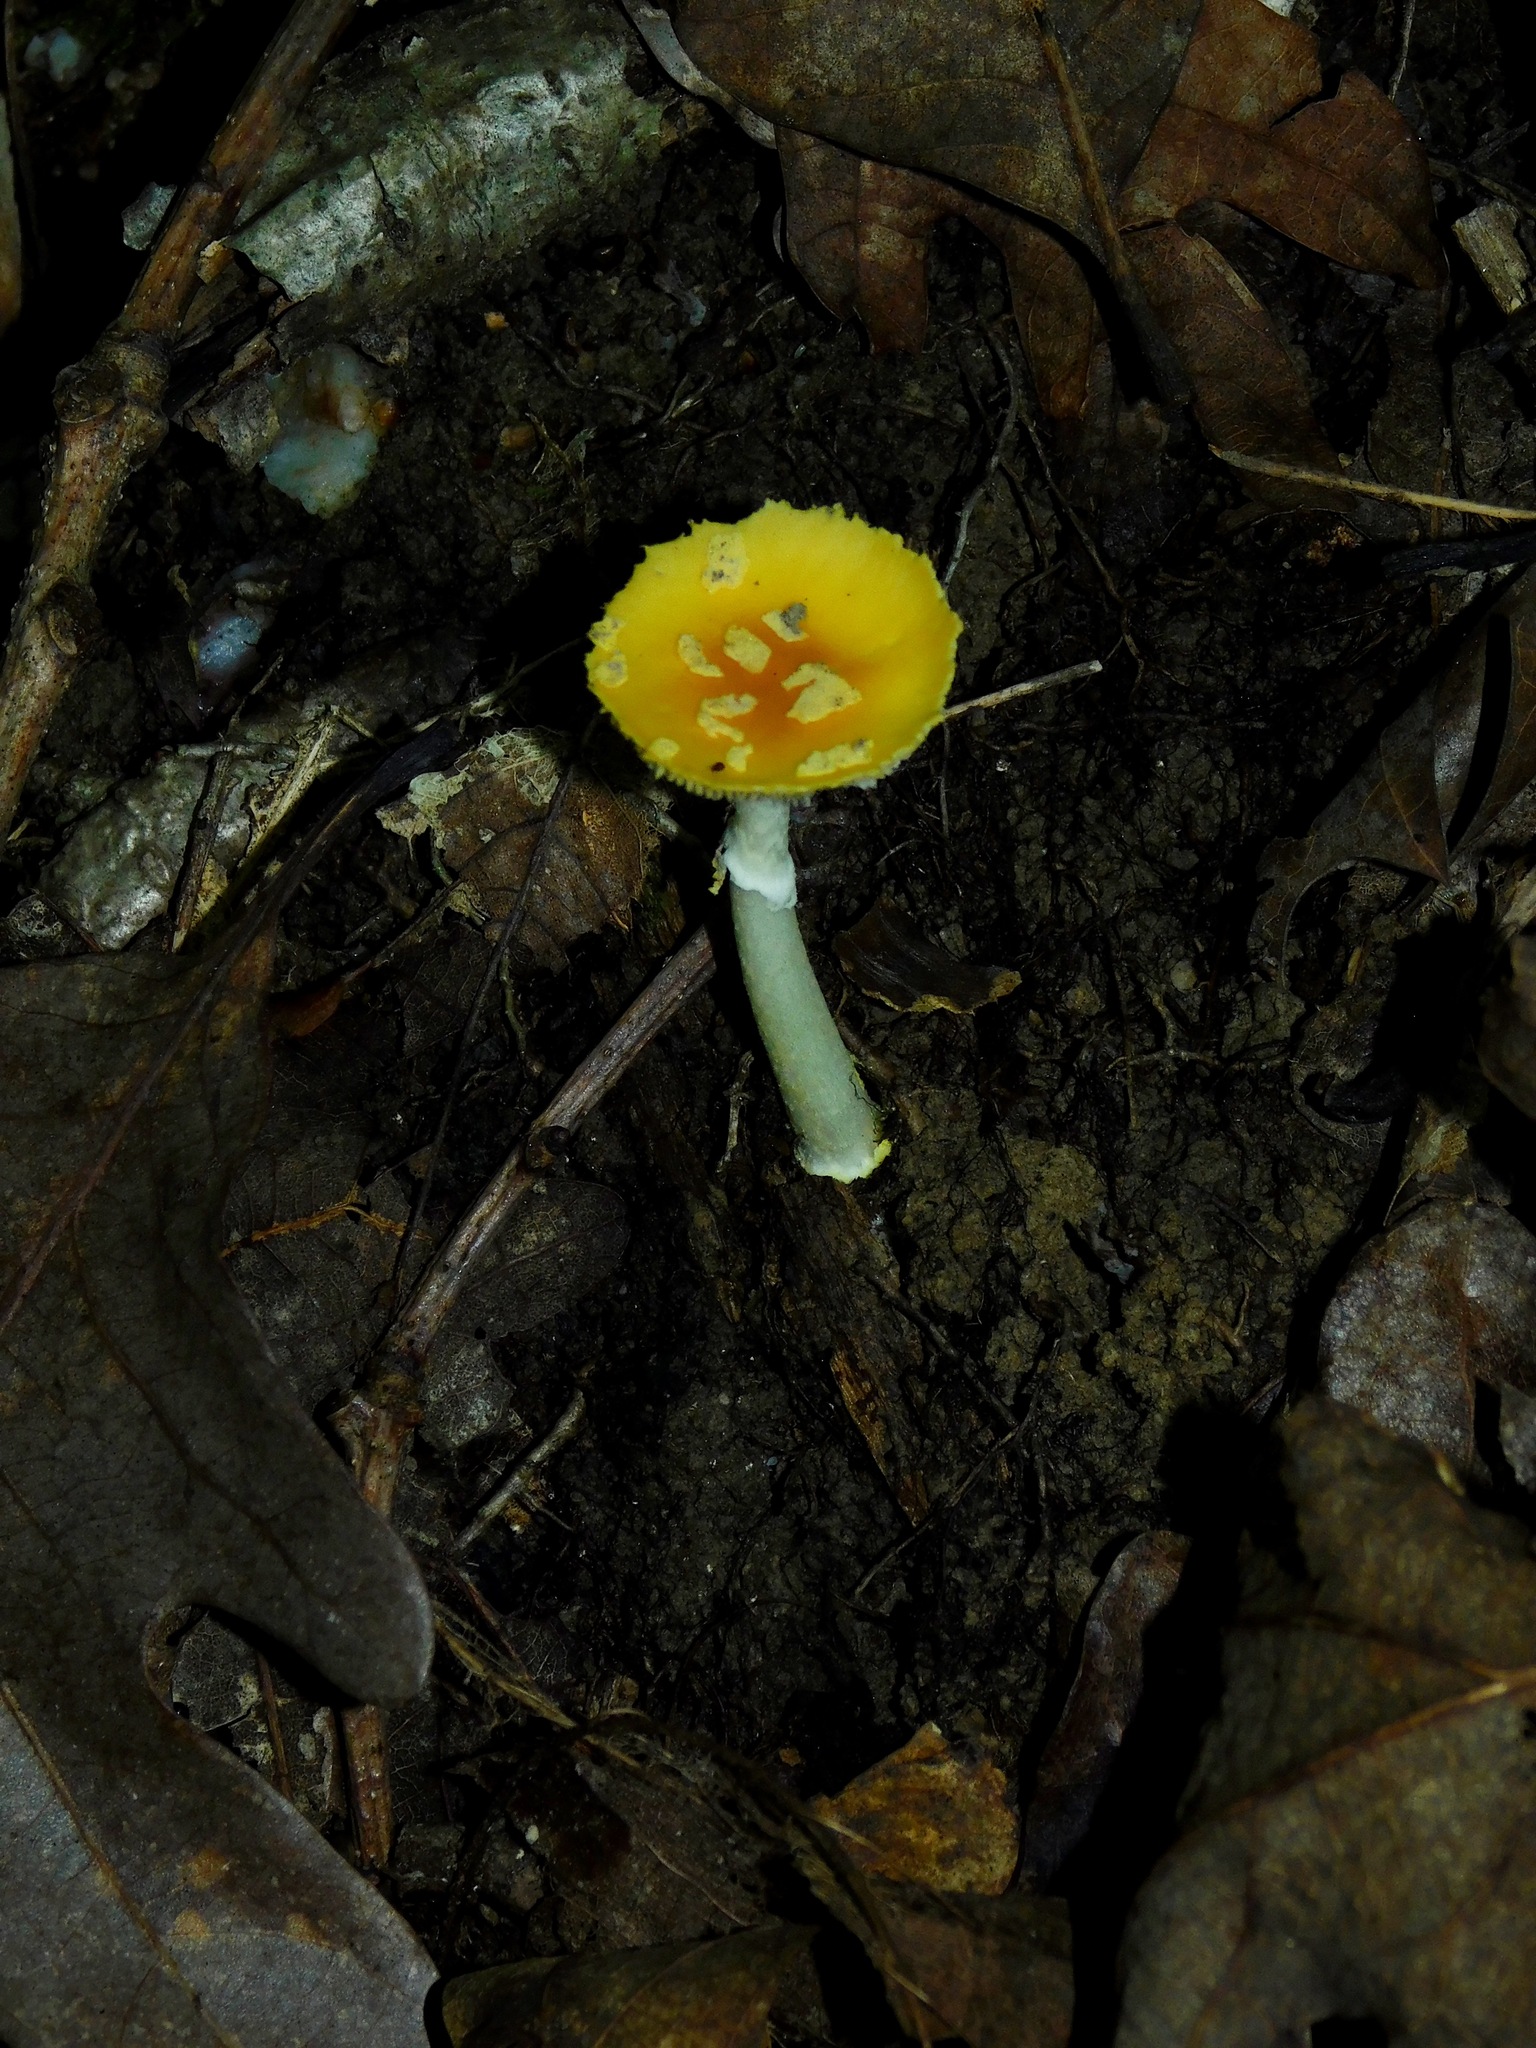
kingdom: Fungi
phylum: Basidiomycota
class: Agaricomycetes
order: Agaricales
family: Amanitaceae
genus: Amanita
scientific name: Amanita frostiana
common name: Frost's amanita
